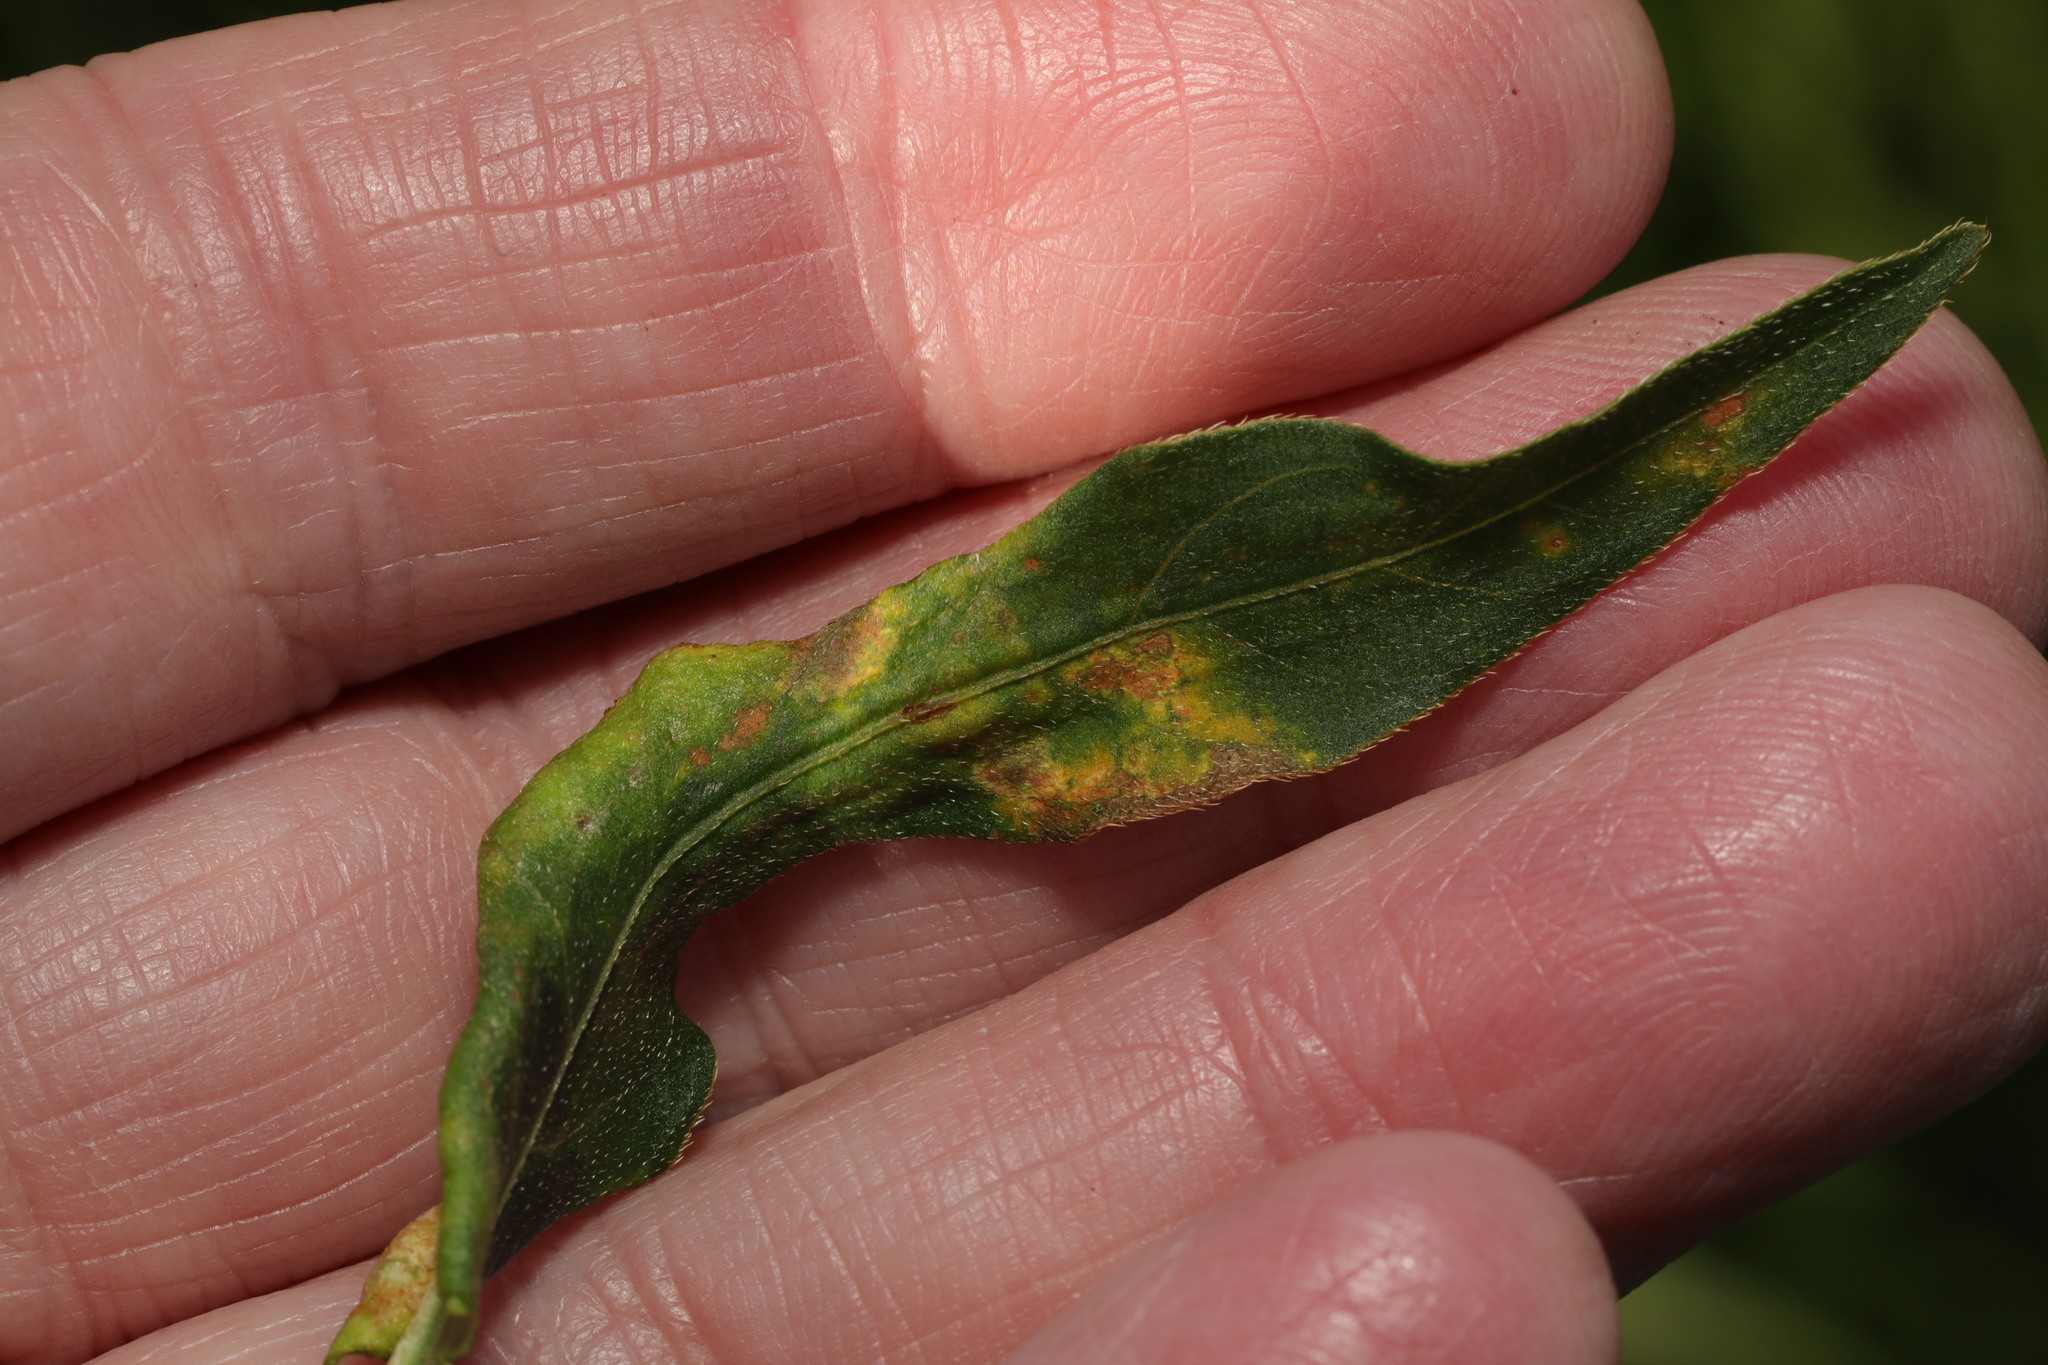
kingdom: Animalia
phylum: Arthropoda
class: Insecta
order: Diptera
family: Cecidomyiidae
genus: Wachtliella
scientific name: Wachtliella persicariae
